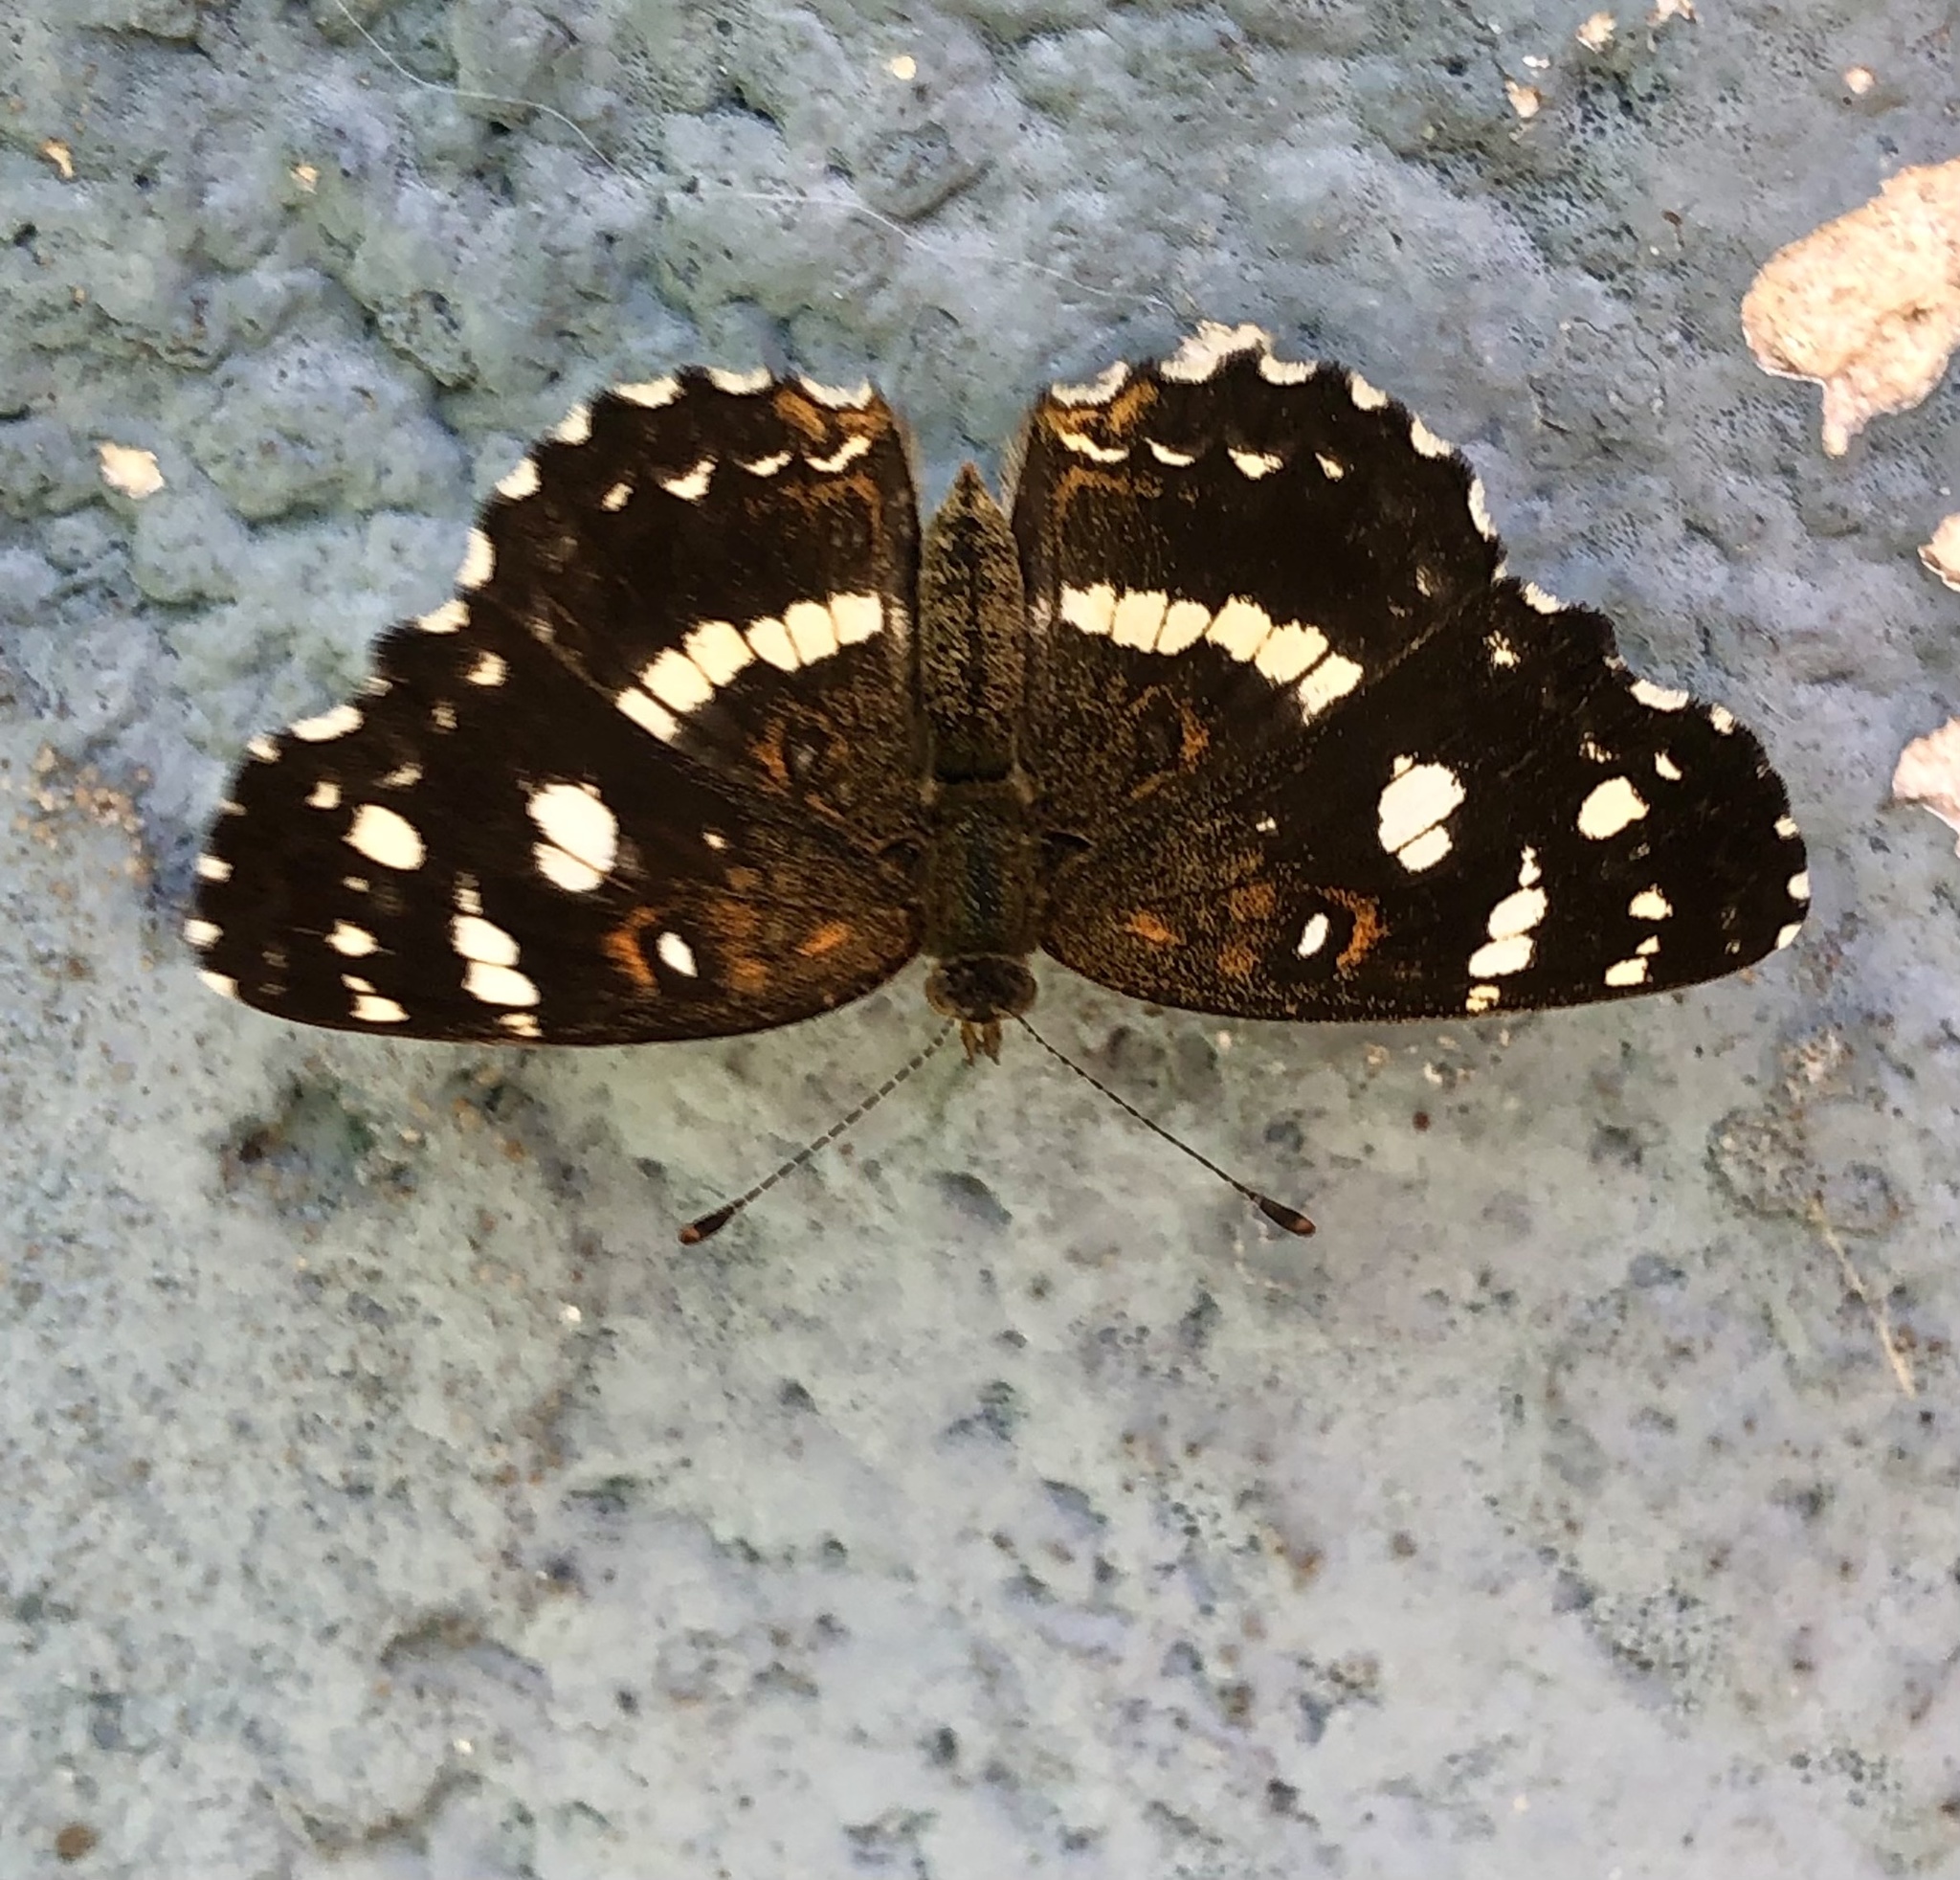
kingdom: Animalia
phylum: Arthropoda
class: Insecta
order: Lepidoptera
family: Nymphalidae
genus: Ortilia
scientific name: Ortilia ithra
